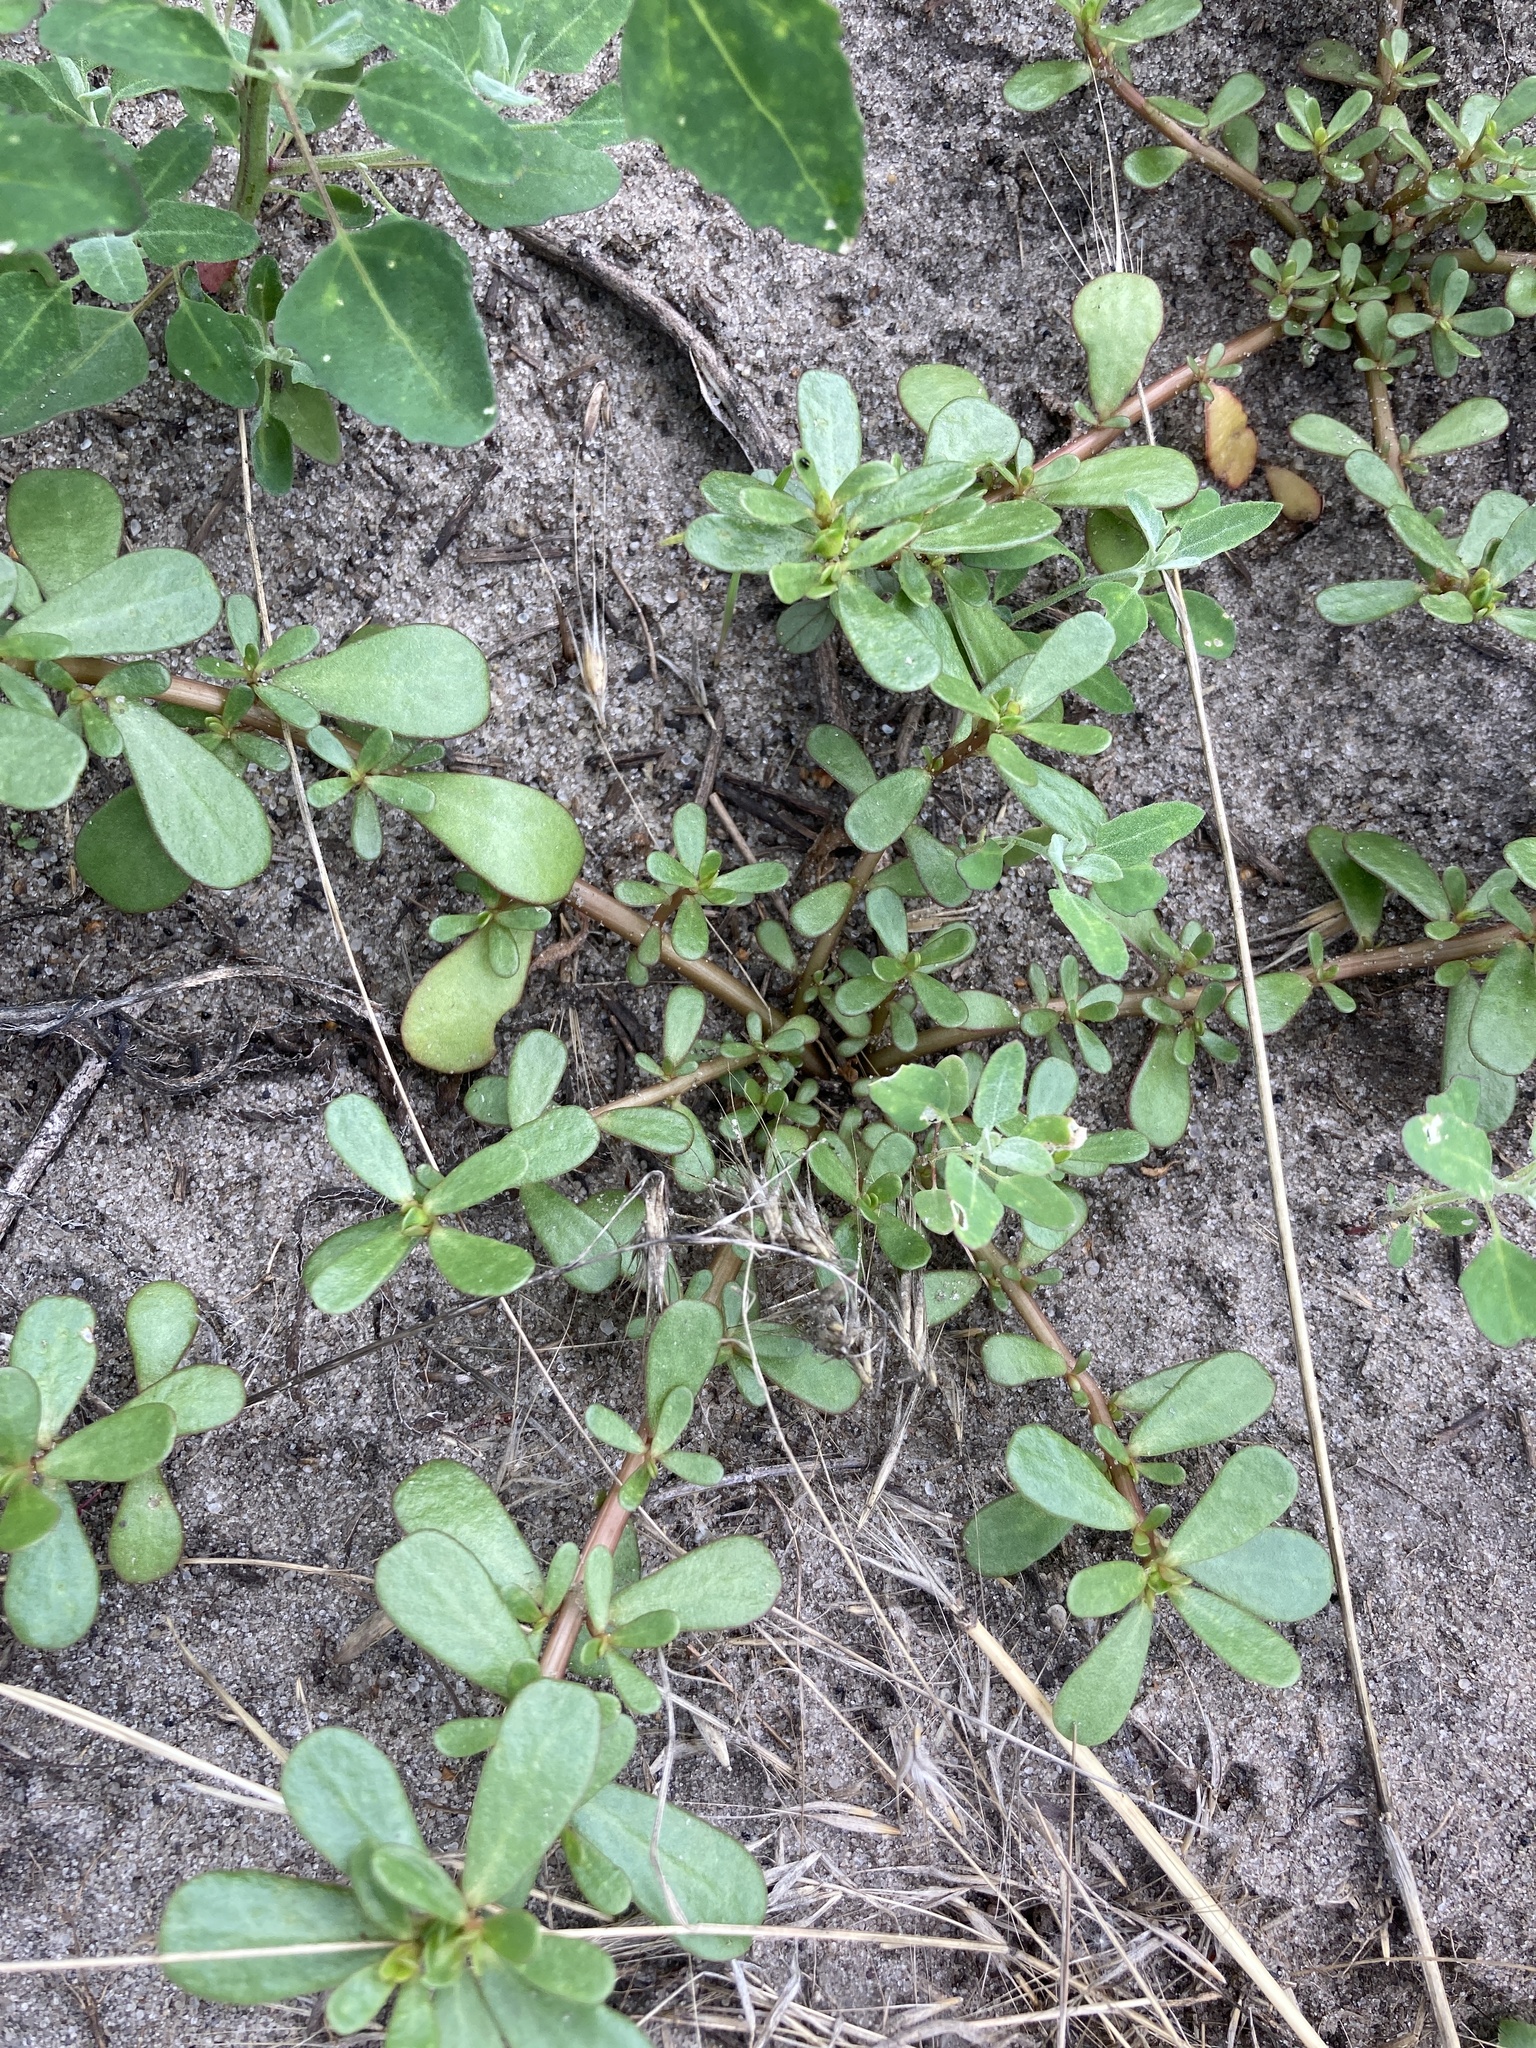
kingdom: Plantae
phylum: Tracheophyta
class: Magnoliopsida
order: Caryophyllales
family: Portulacaceae
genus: Portulaca
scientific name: Portulaca oleracea
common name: Common purslane
